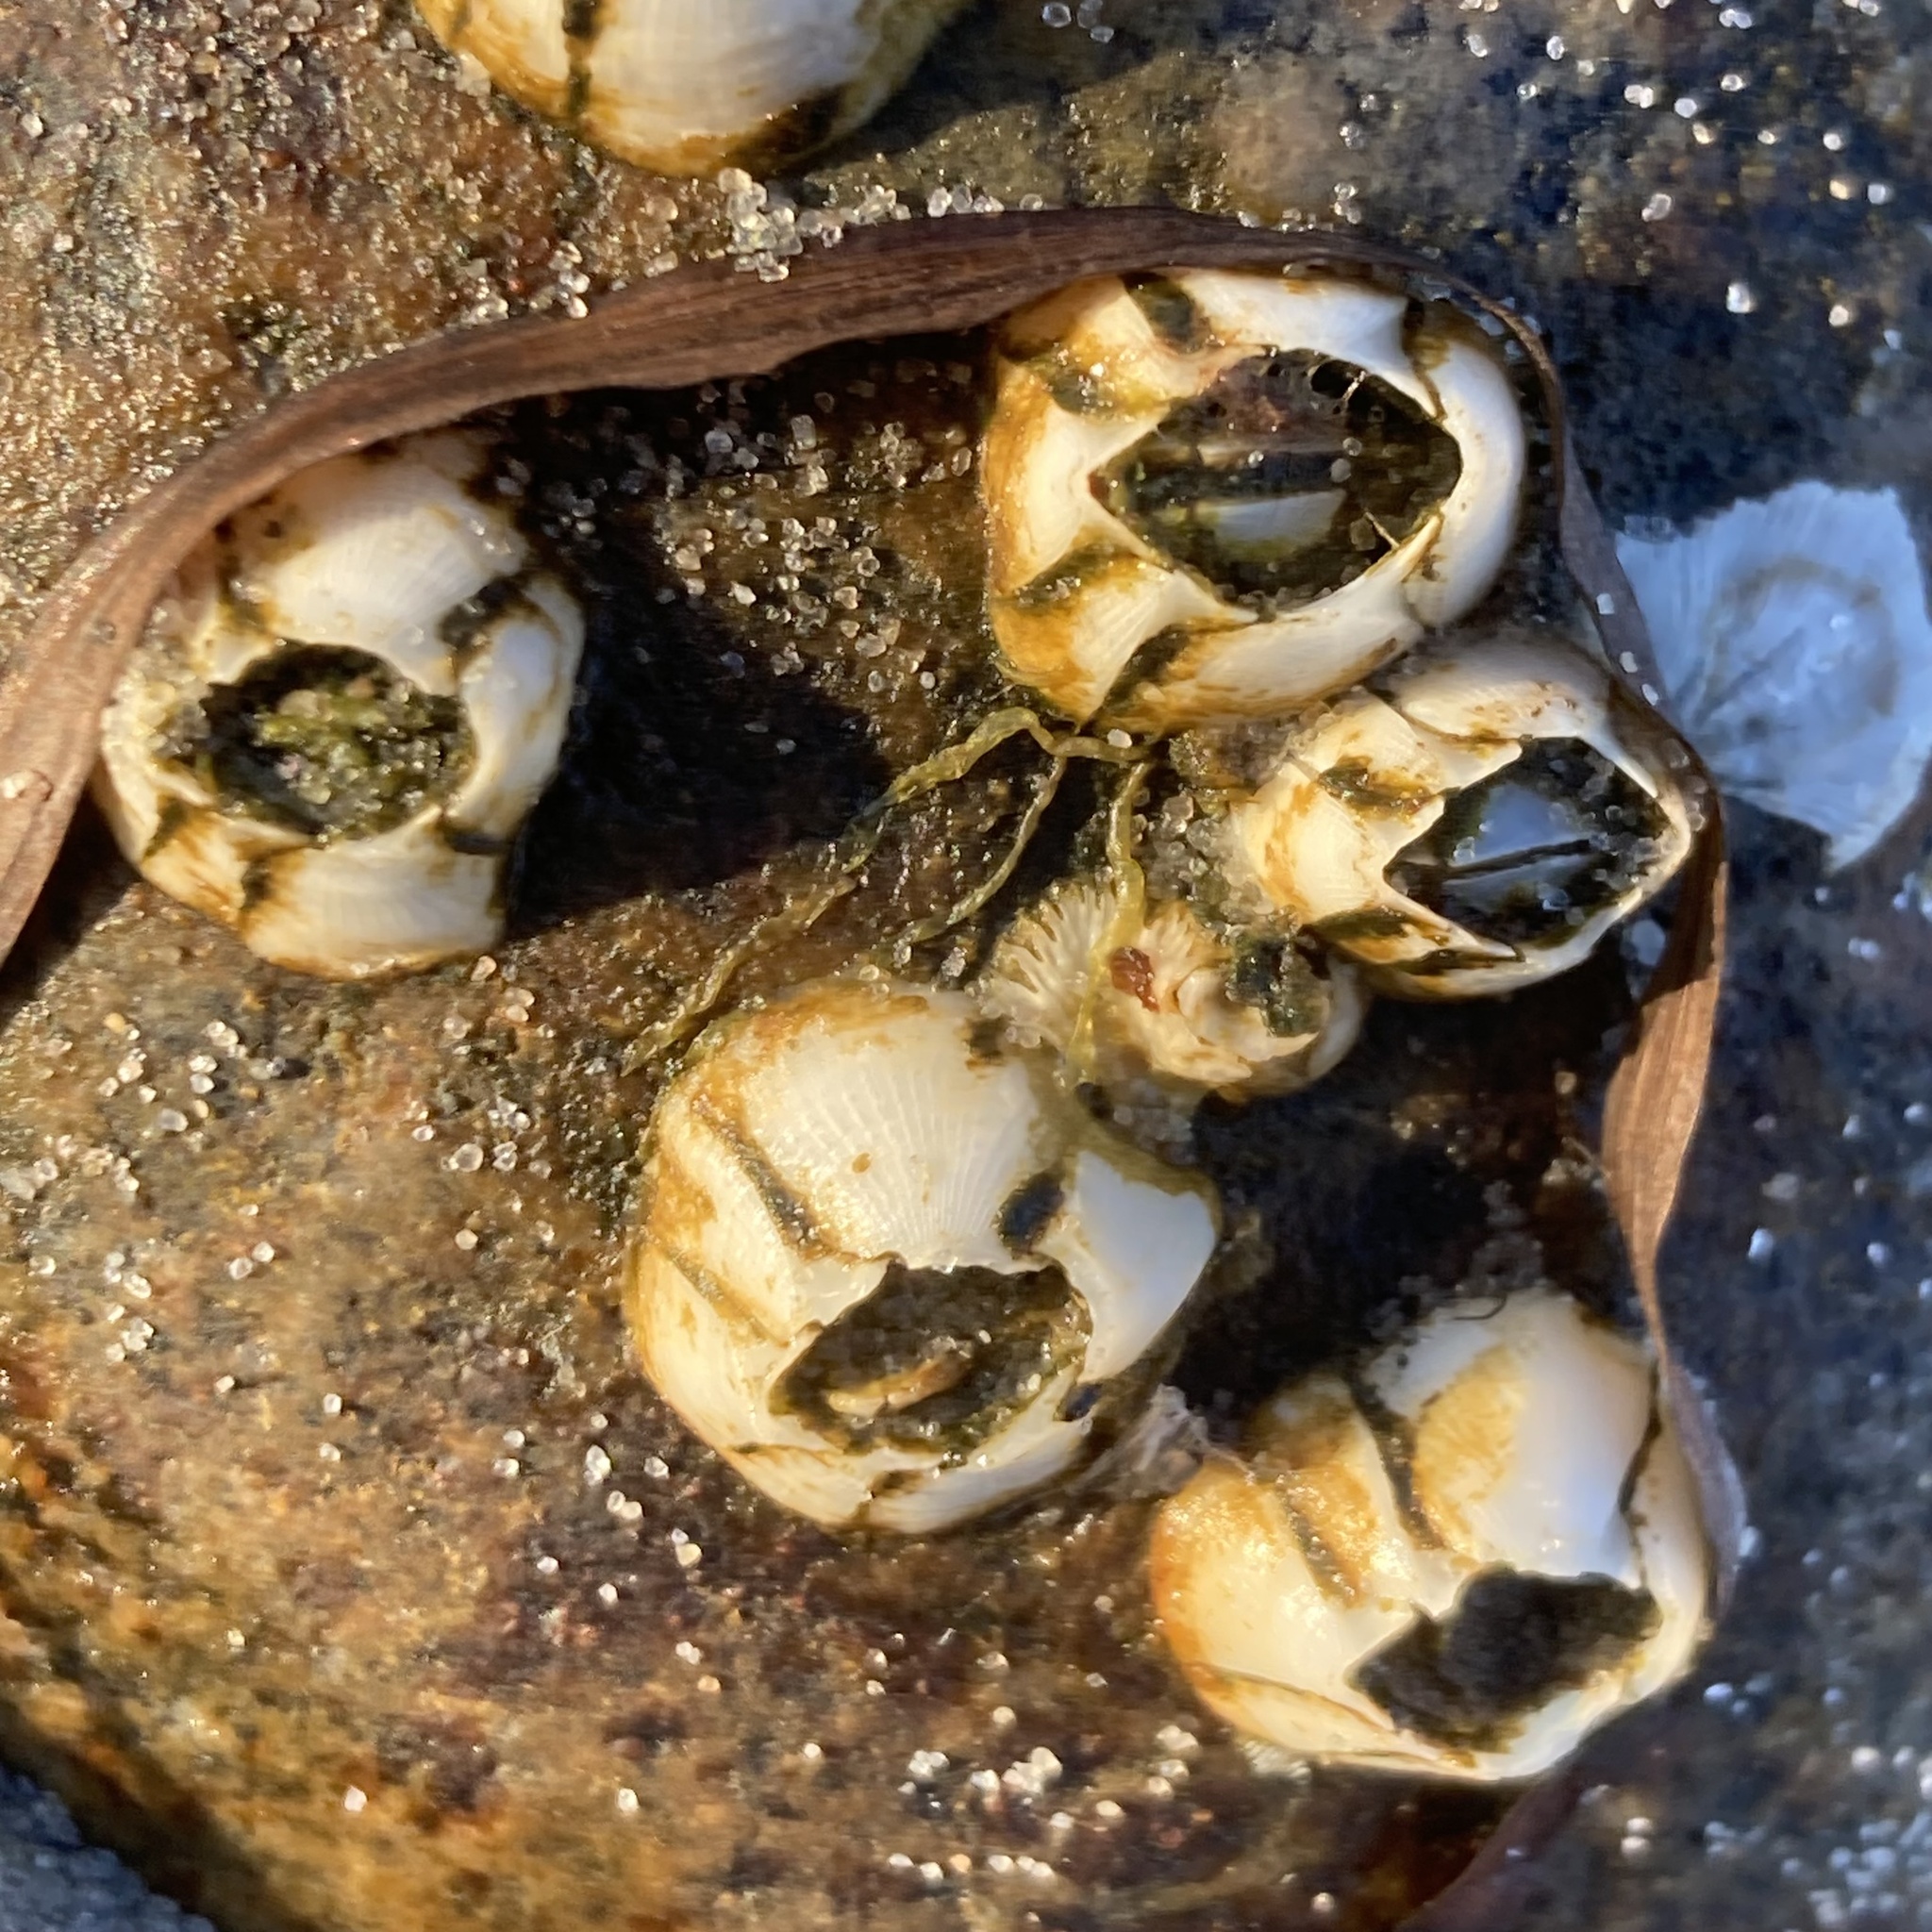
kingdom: Animalia
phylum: Arthropoda
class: Maxillopoda
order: Sessilia
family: Balanidae
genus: Amphibalanus
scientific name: Amphibalanus improvisus
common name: Bay barnacle
